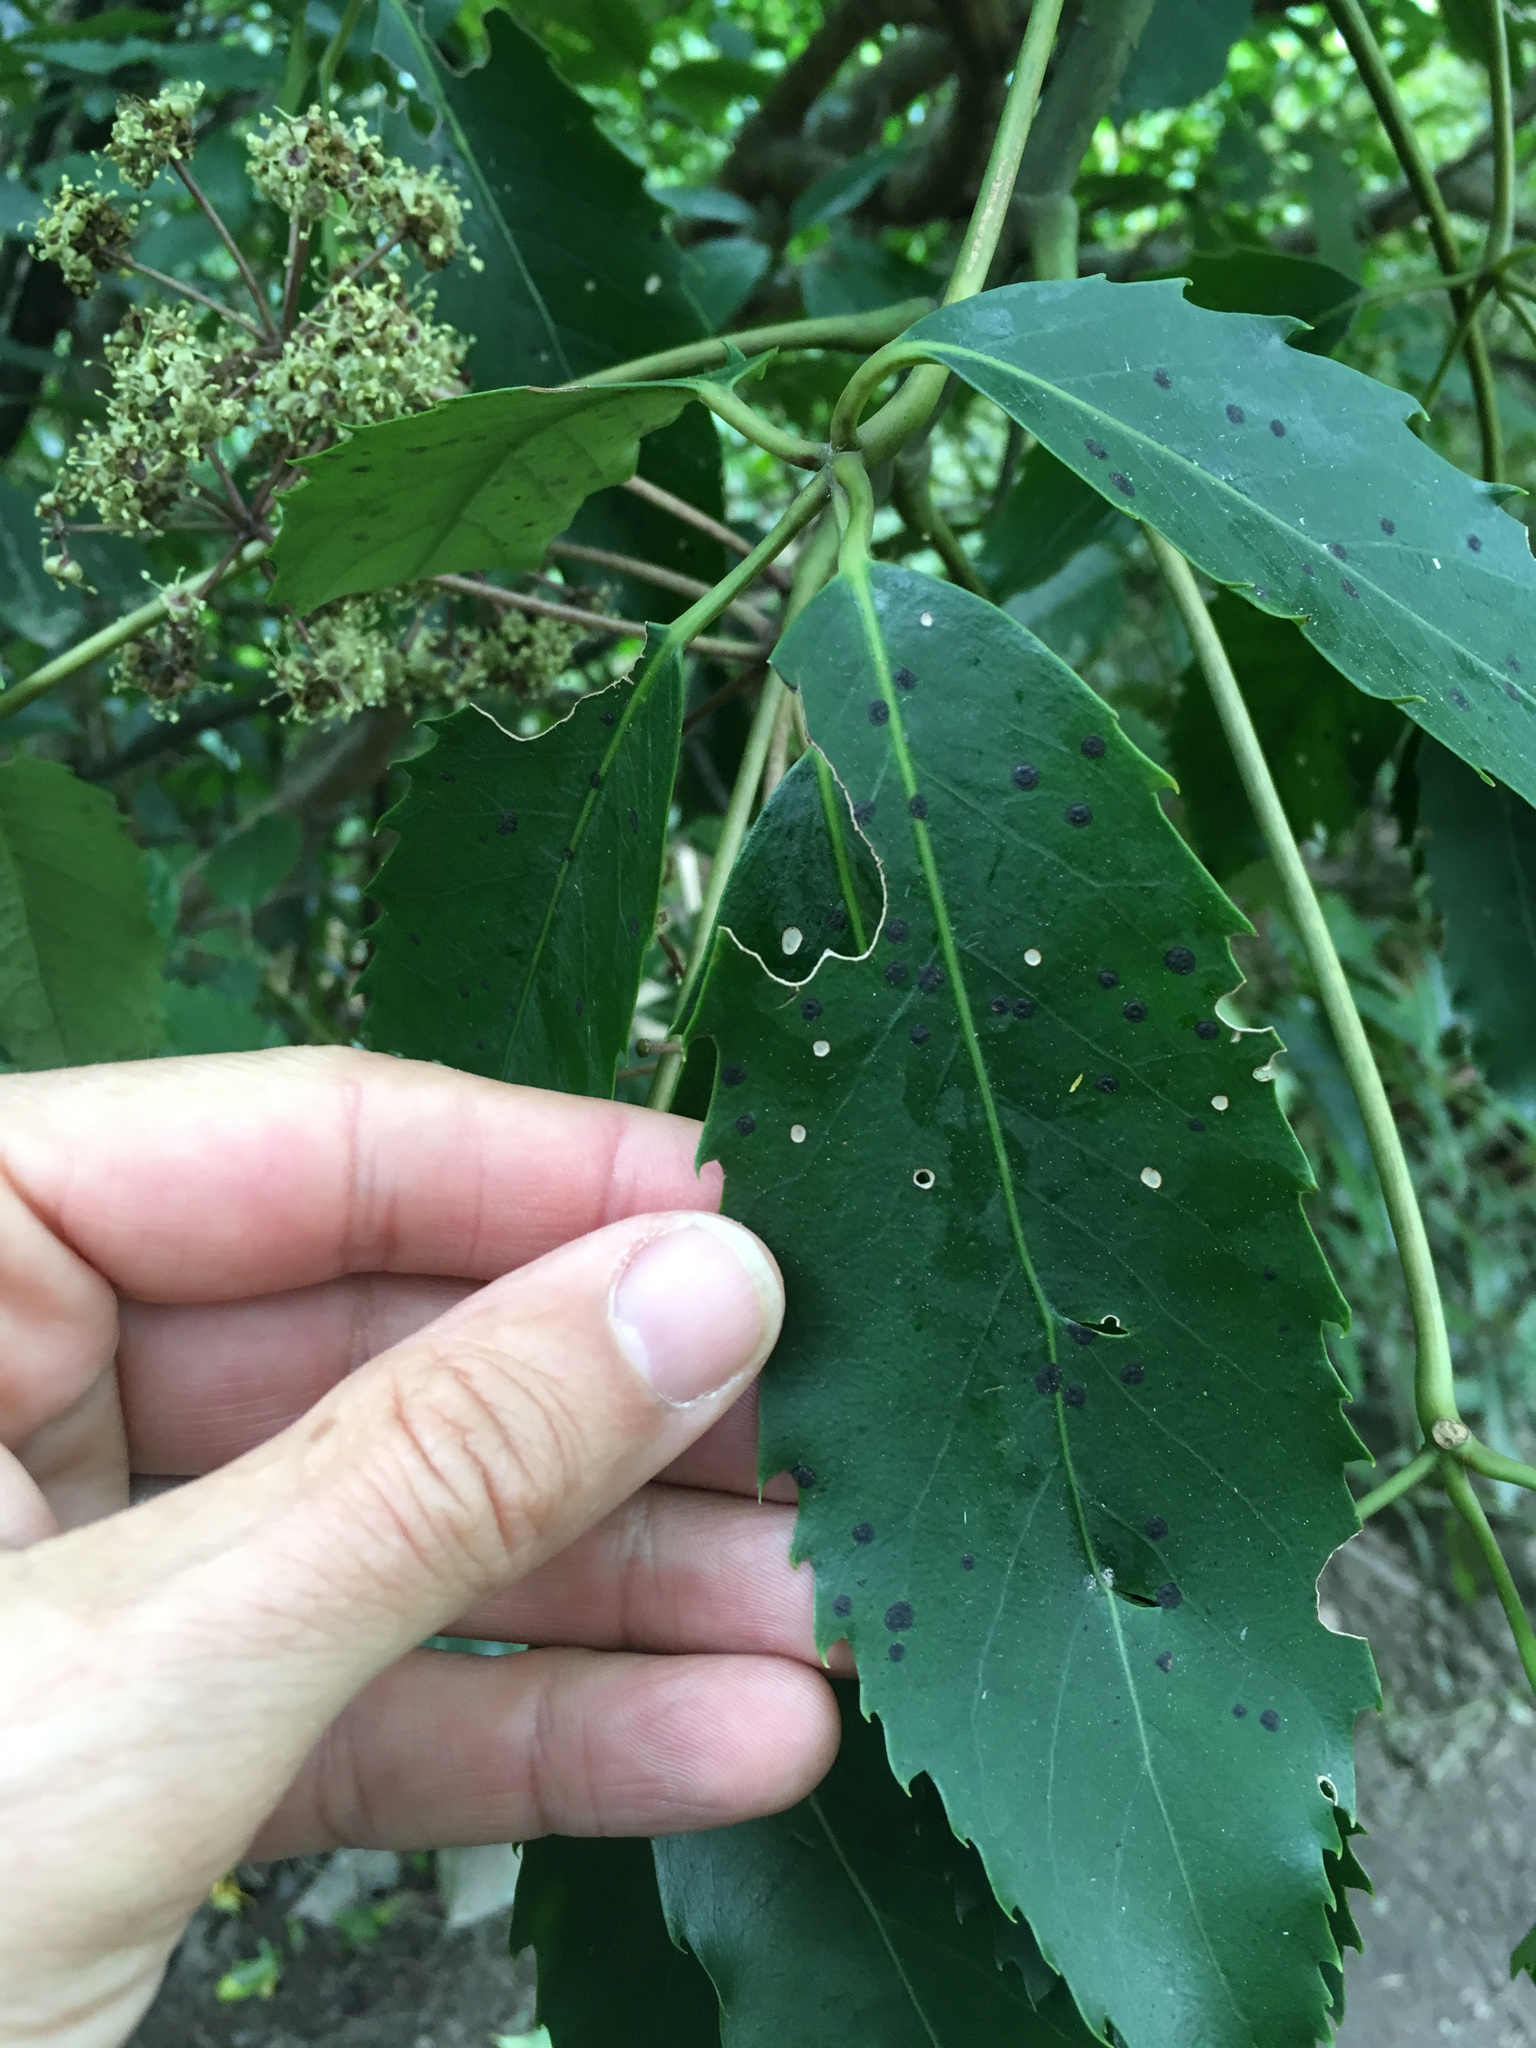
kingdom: Fungi
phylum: Ascomycota
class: Dothideomycetes
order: Asterinales
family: Asterinaceae
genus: Placosoma
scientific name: Placosoma nothopanacis
